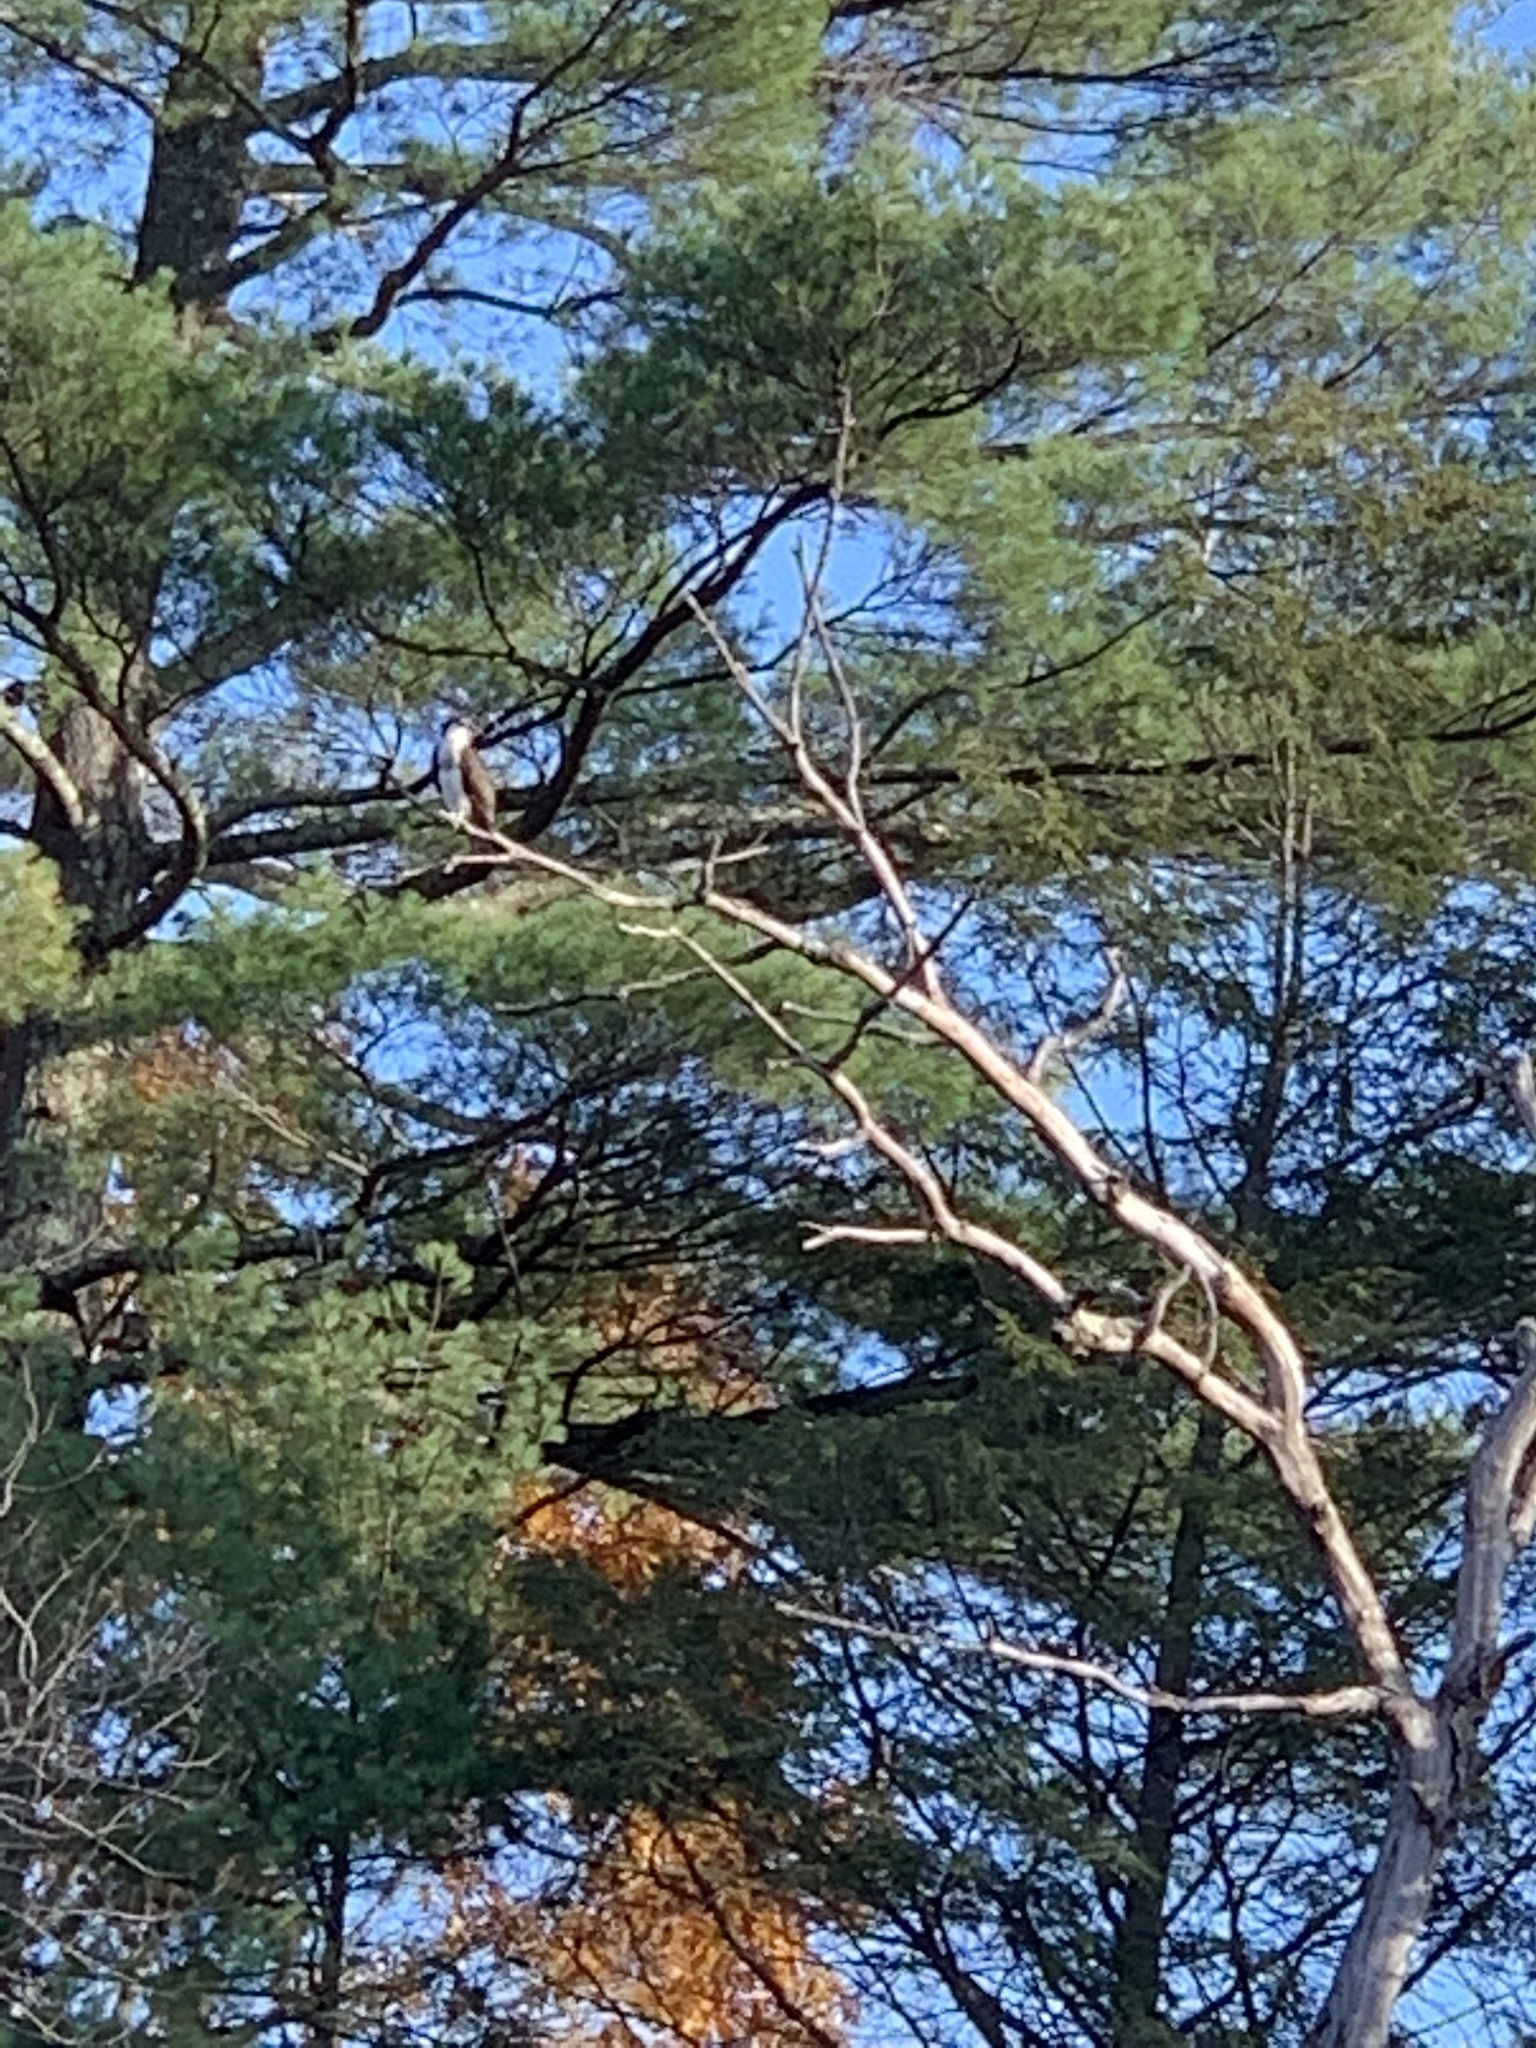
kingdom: Animalia
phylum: Chordata
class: Aves
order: Accipitriformes
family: Pandionidae
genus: Pandion
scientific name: Pandion haliaetus
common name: Osprey
